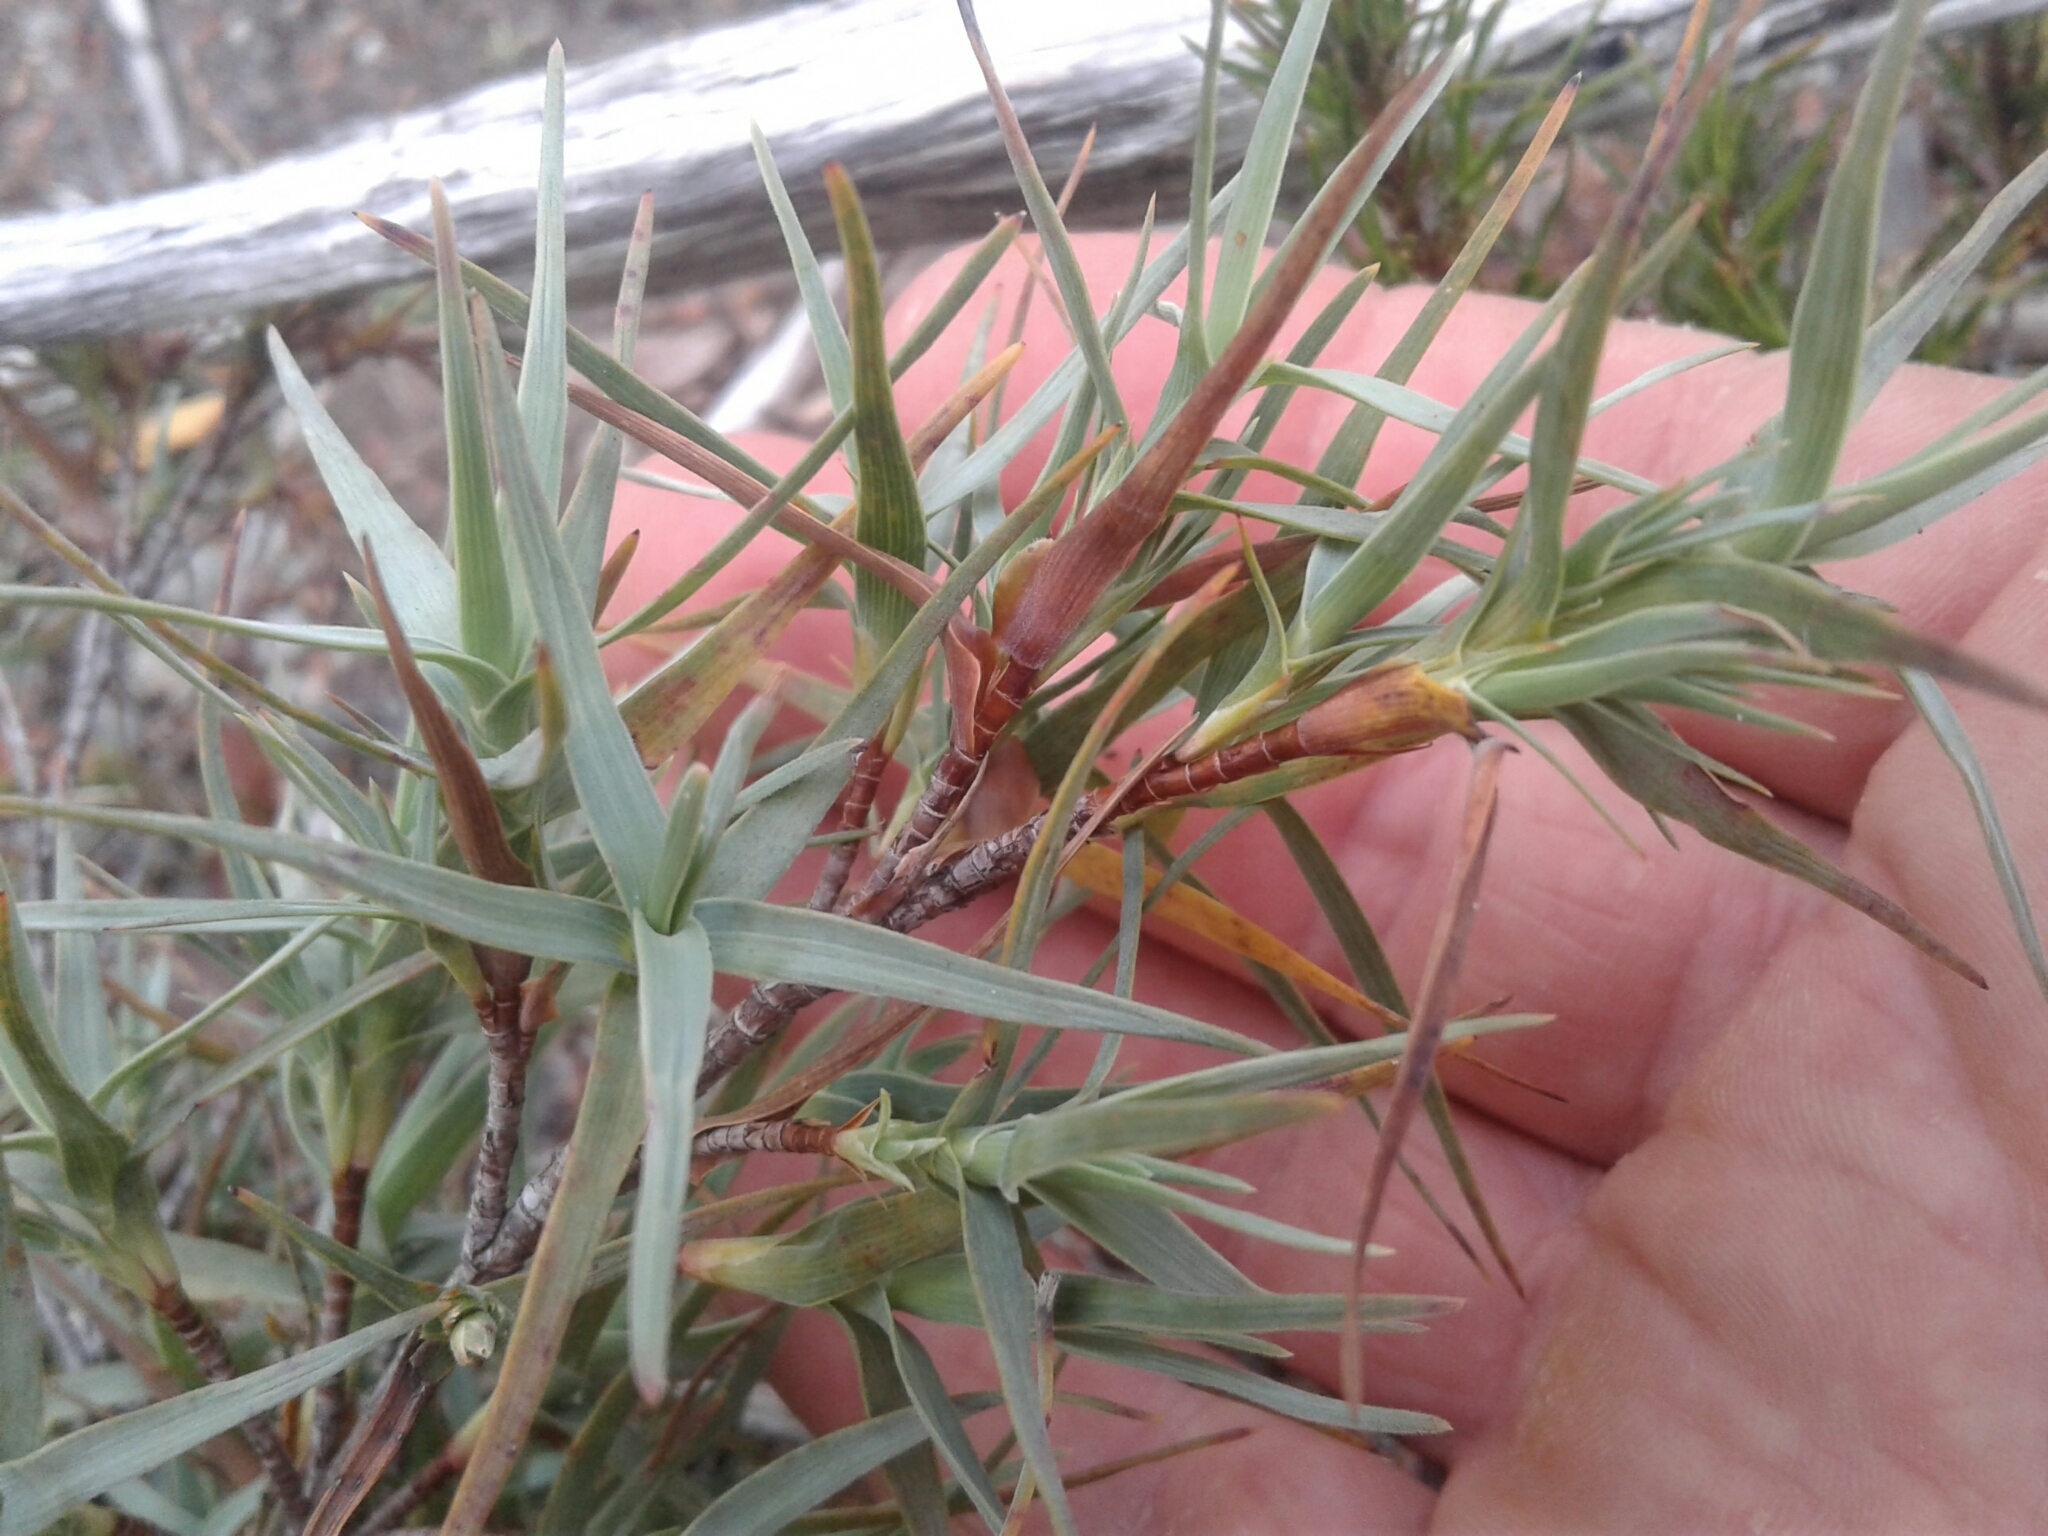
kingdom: Plantae
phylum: Tracheophyta
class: Magnoliopsida
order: Ericales
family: Ericaceae
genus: Dracophyllum
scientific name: Dracophyllum pubescens
